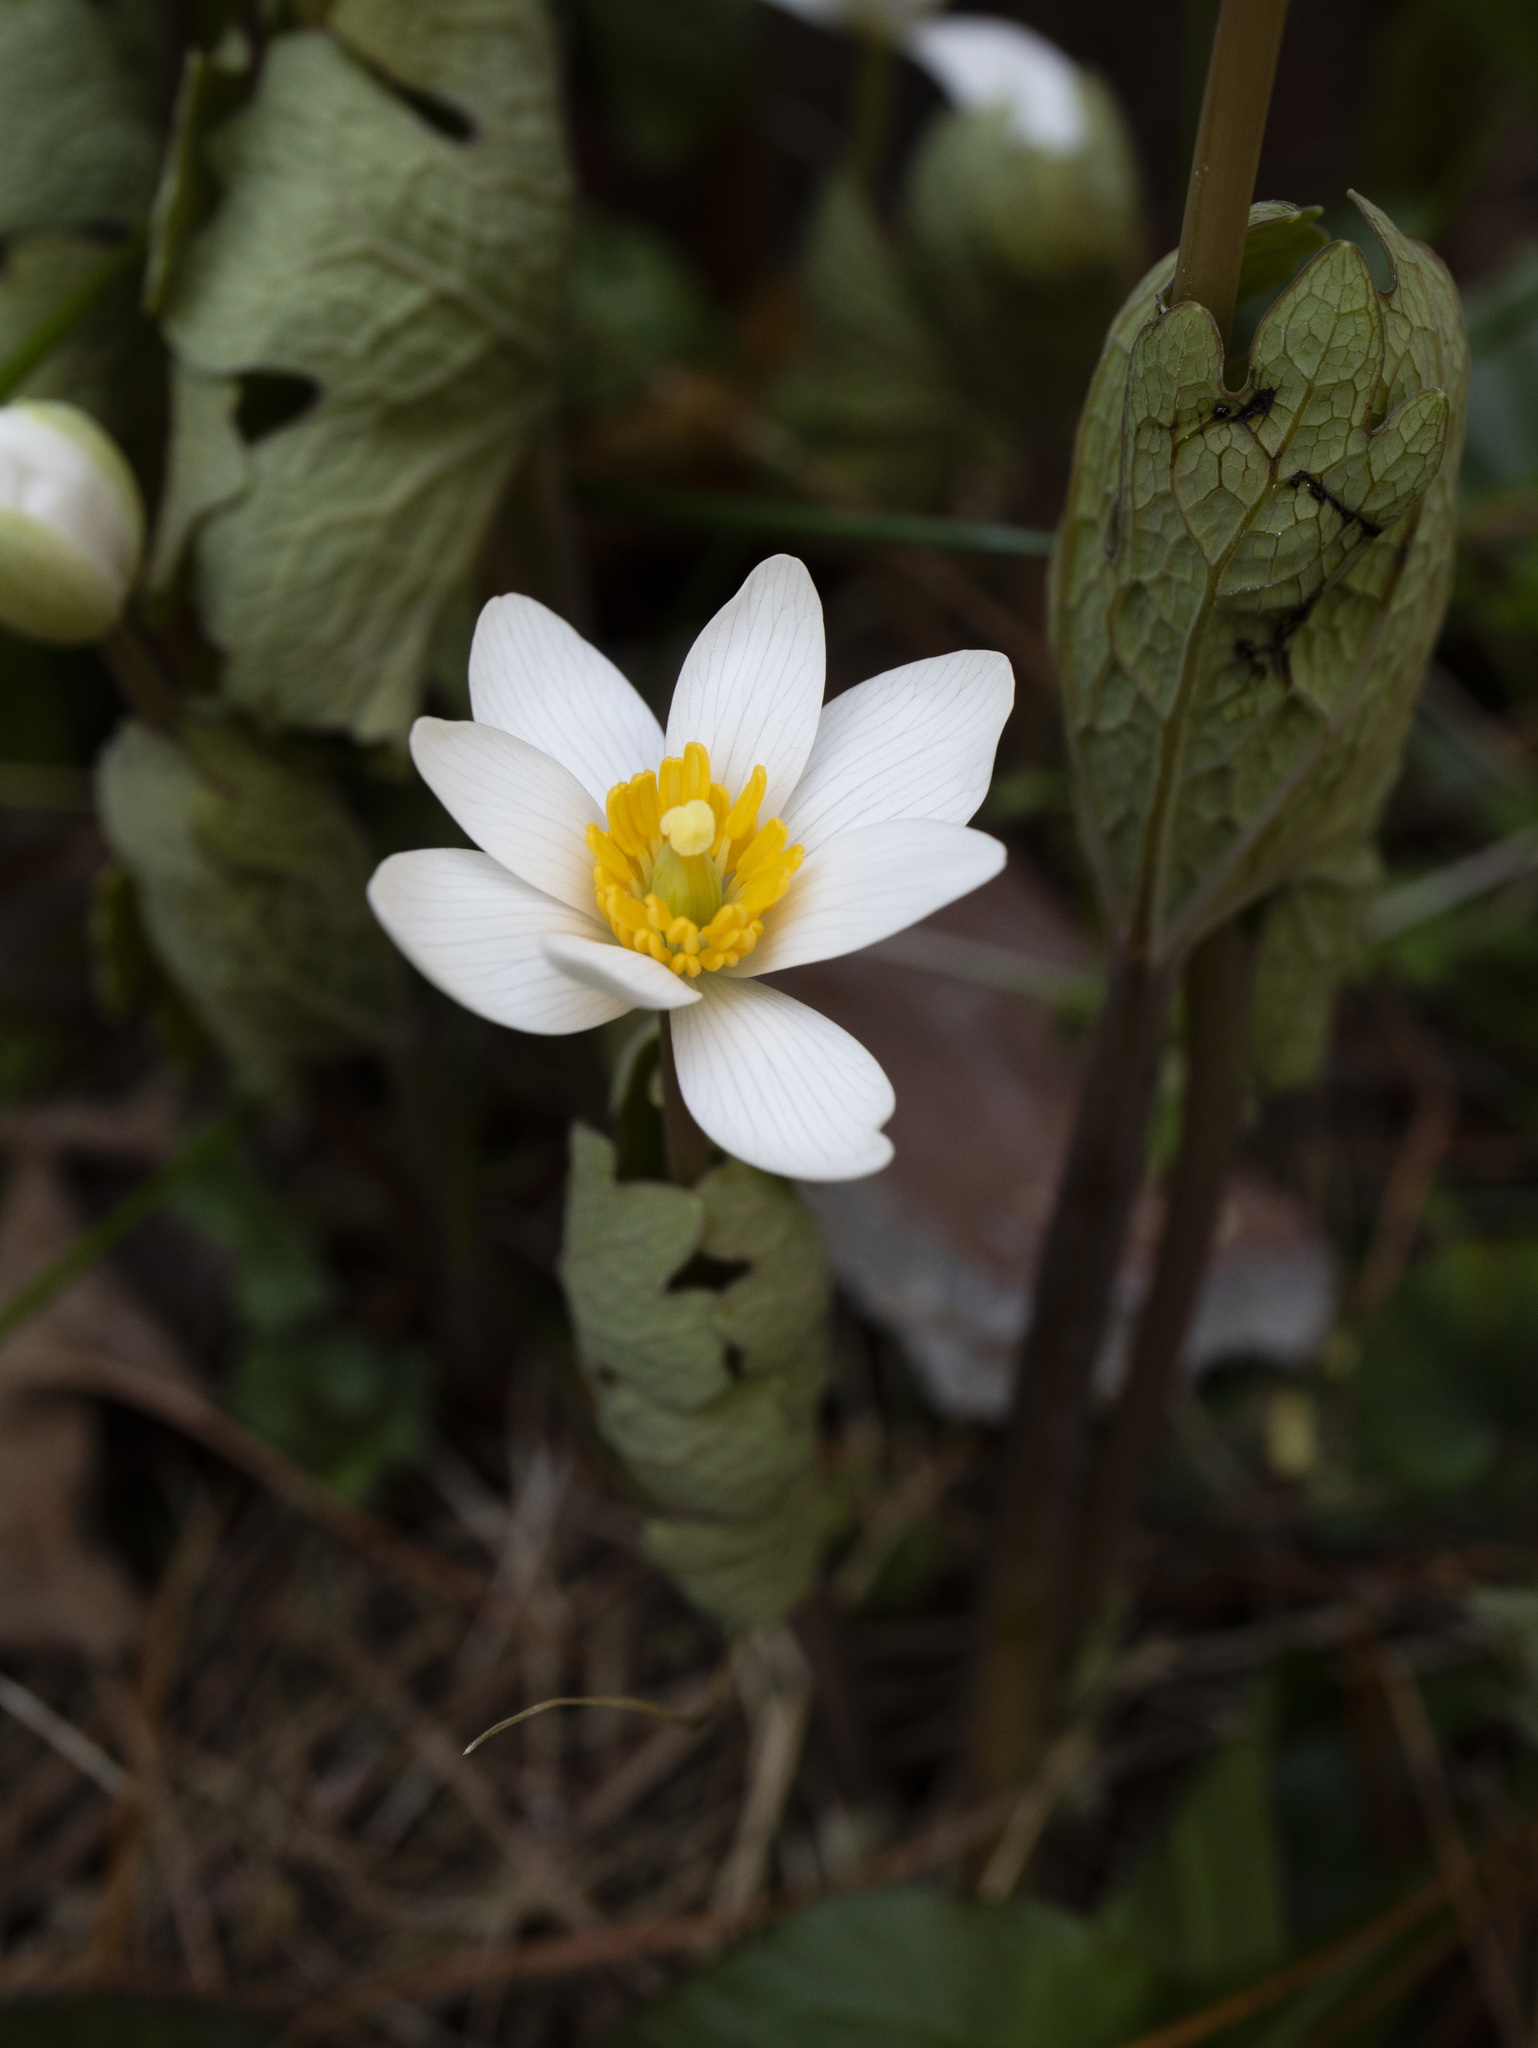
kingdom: Plantae
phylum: Tracheophyta
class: Magnoliopsida
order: Ranunculales
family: Papaveraceae
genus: Sanguinaria
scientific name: Sanguinaria canadensis
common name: Bloodroot
